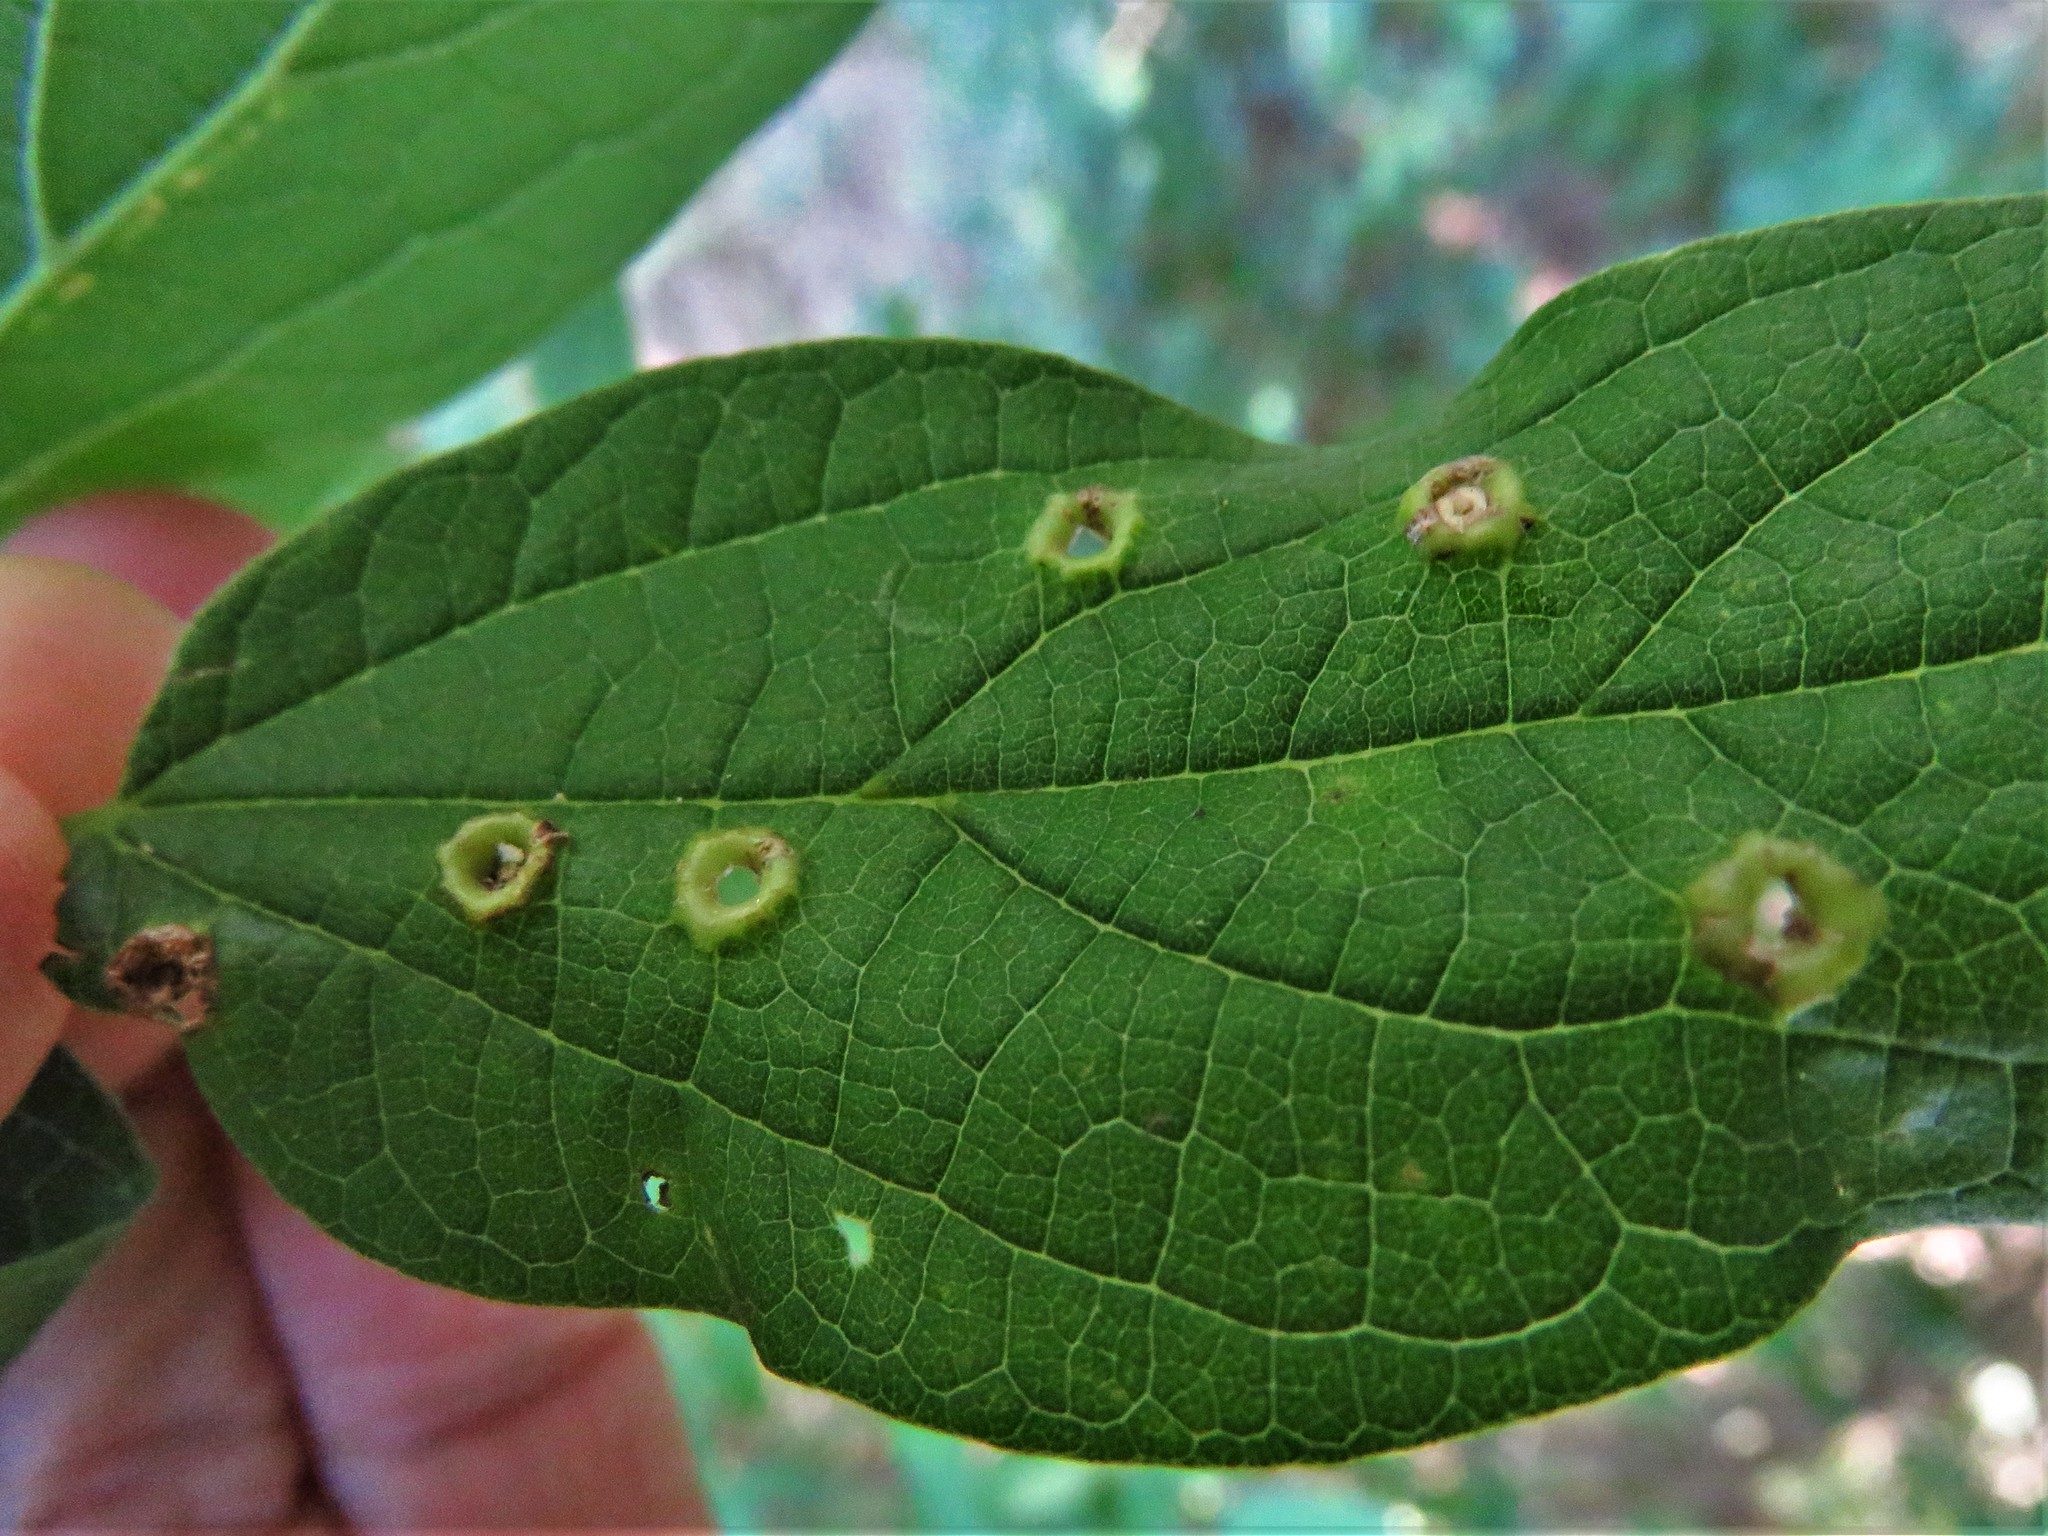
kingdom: Animalia
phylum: Arthropoda
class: Insecta
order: Hemiptera
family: Aphalaridae
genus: Pachypsylla
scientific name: Pachypsylla celtidismamma
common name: Hackberry nipplegall psyllid
